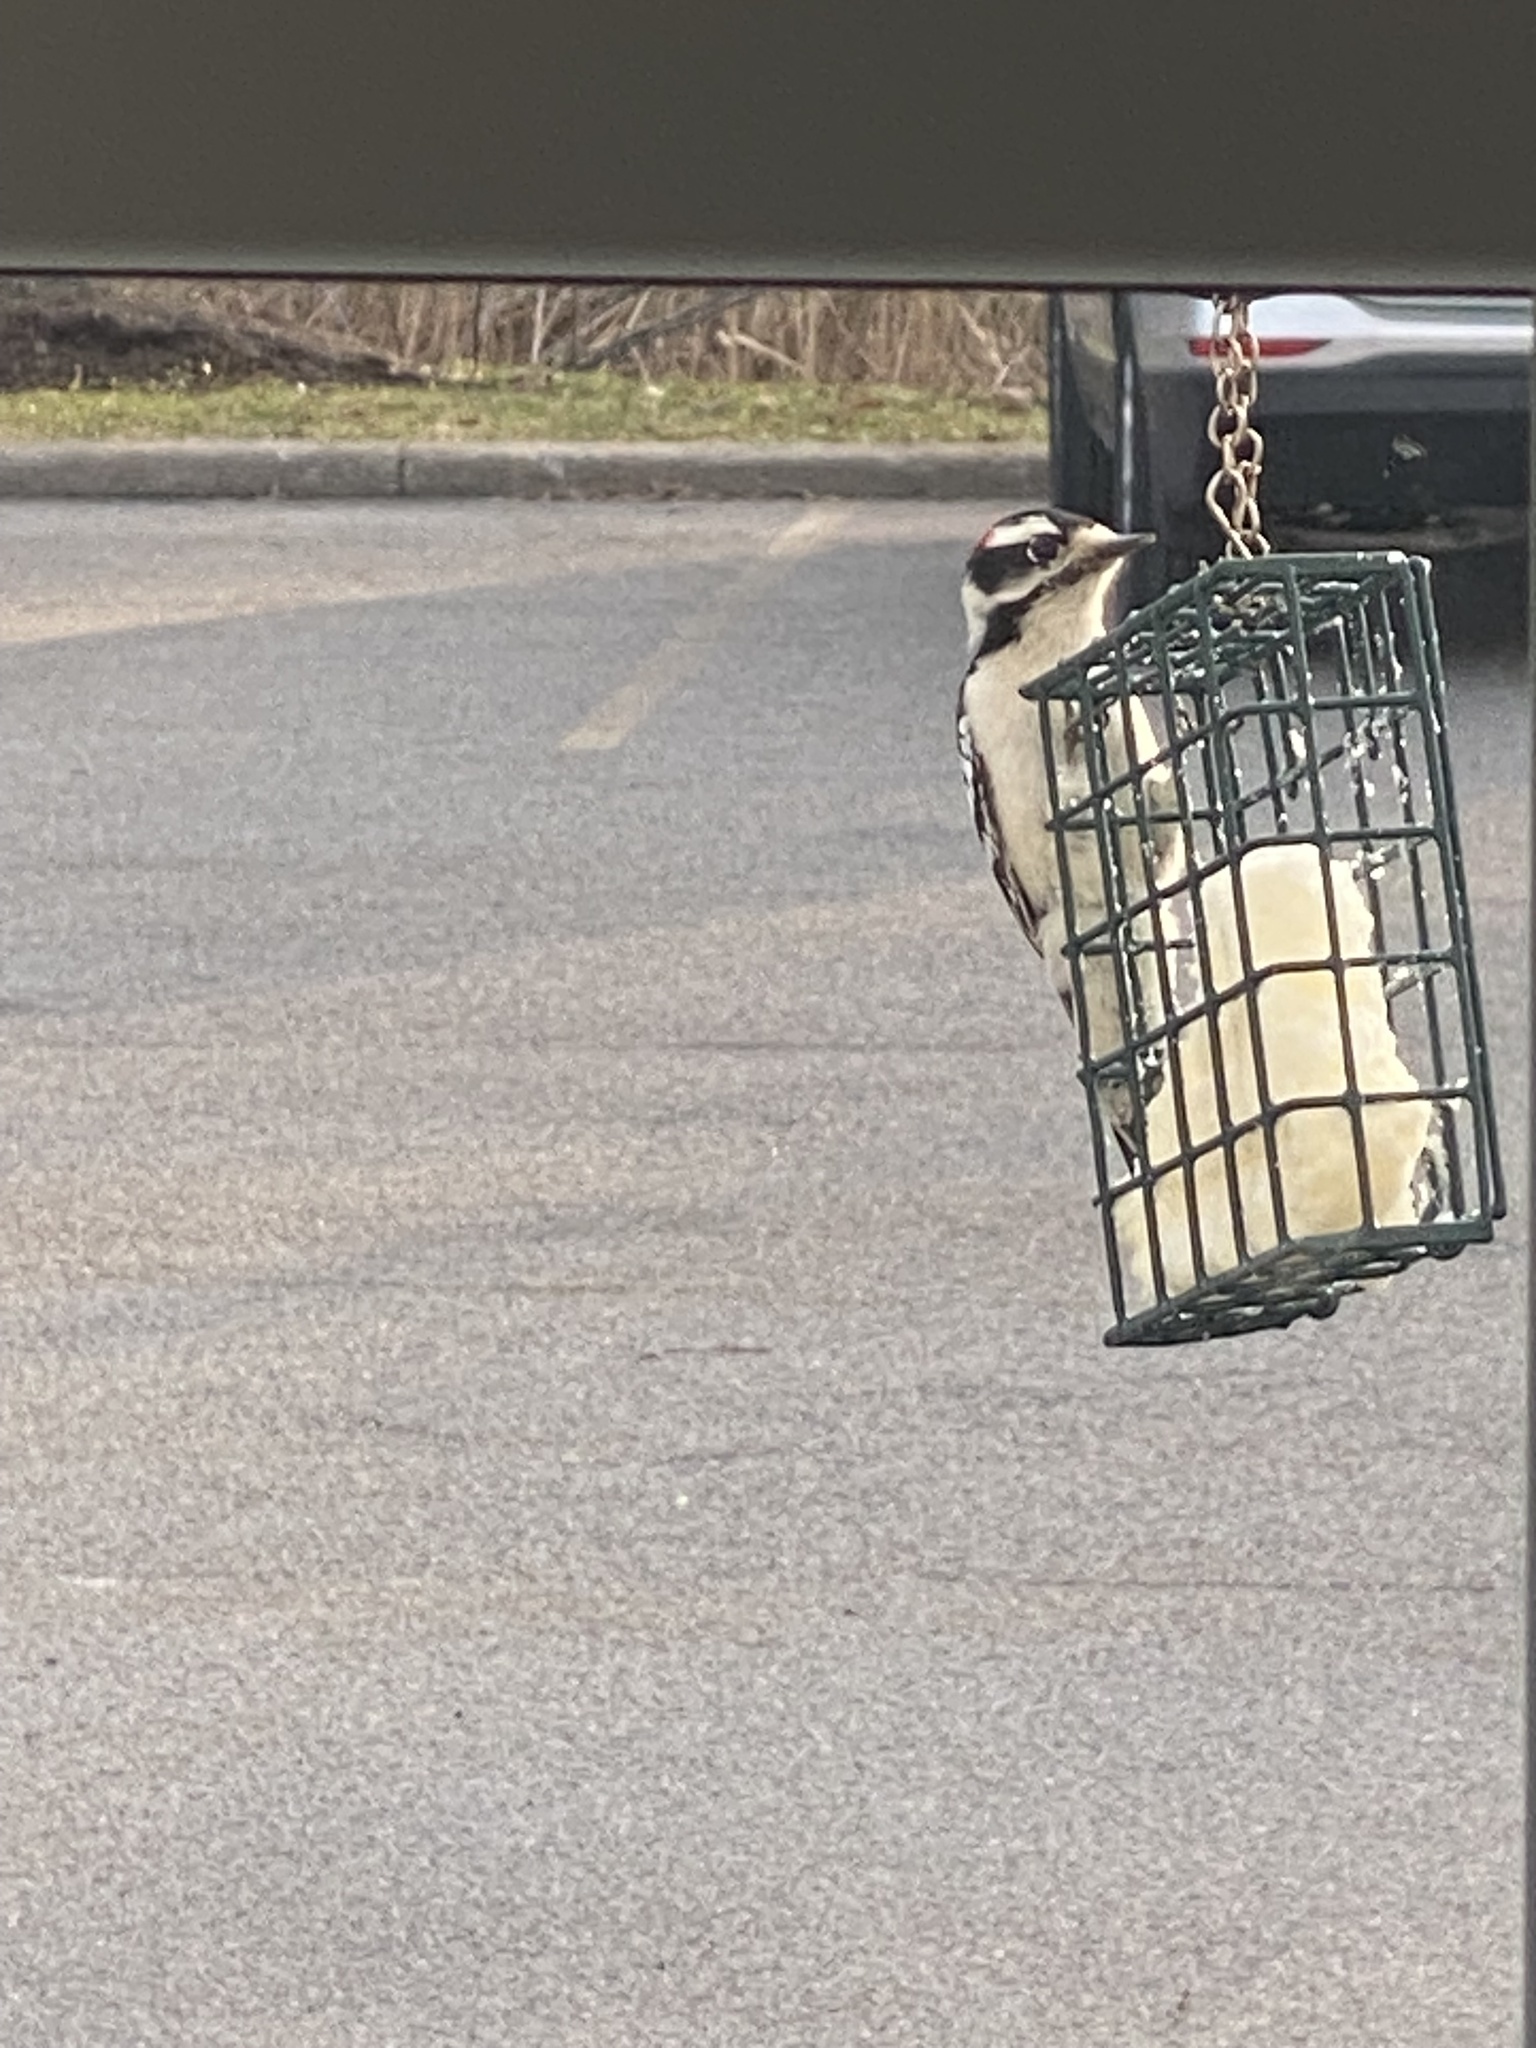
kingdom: Animalia
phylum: Chordata
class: Aves
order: Piciformes
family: Picidae
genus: Dryobates
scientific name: Dryobates pubescens
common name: Downy woodpecker
